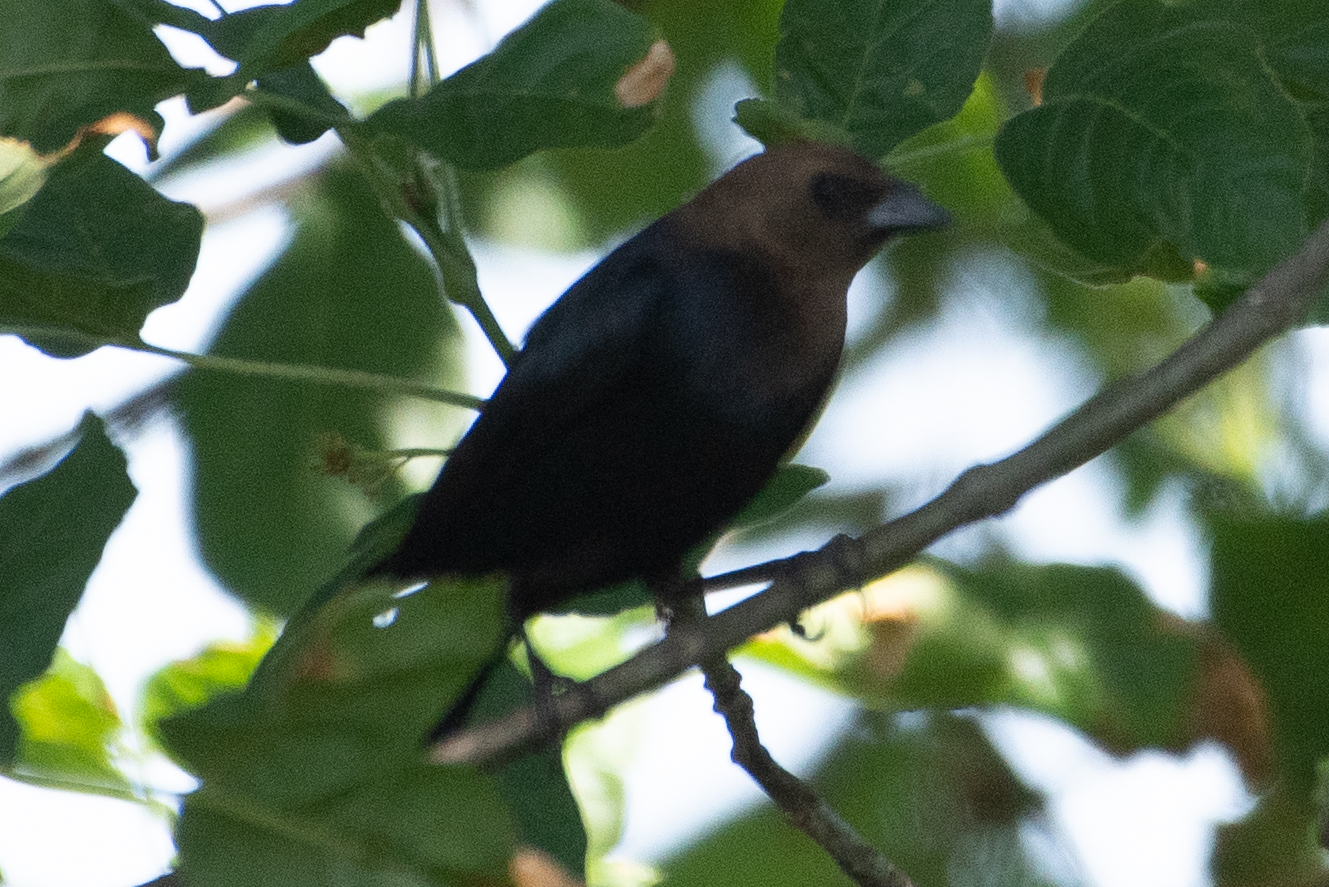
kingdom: Animalia
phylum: Chordata
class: Aves
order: Passeriformes
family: Icteridae
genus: Molothrus
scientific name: Molothrus ater
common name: Brown-headed cowbird
